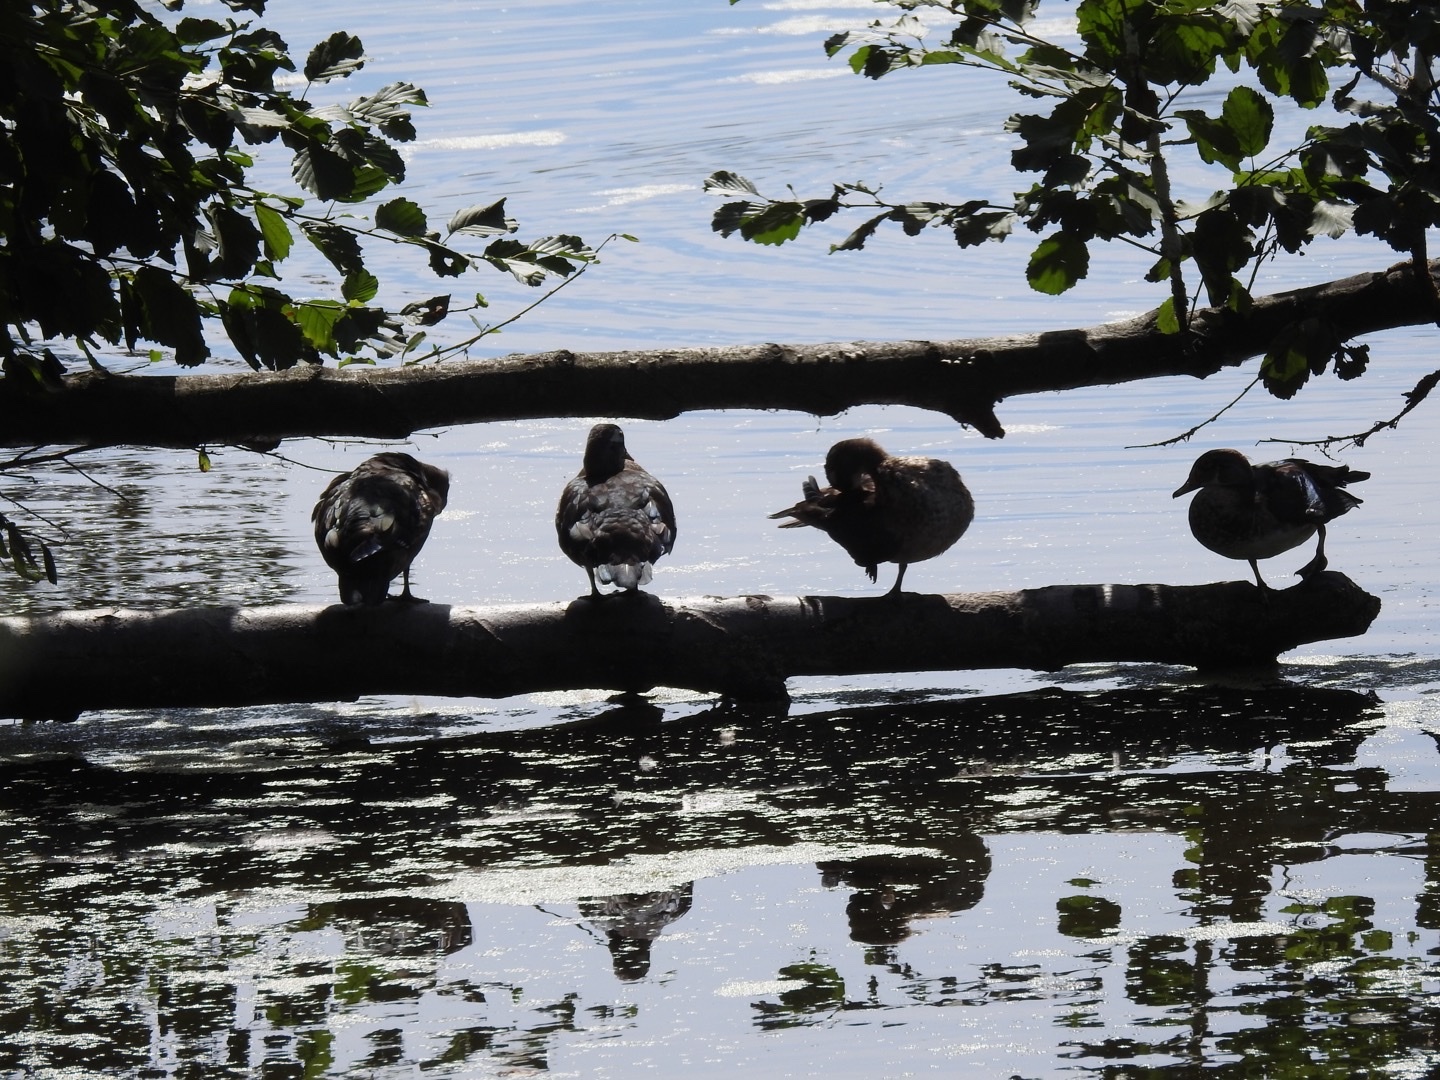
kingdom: Animalia
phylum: Chordata
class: Aves
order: Anseriformes
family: Anatidae
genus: Aix
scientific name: Aix sponsa
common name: Wood duck
